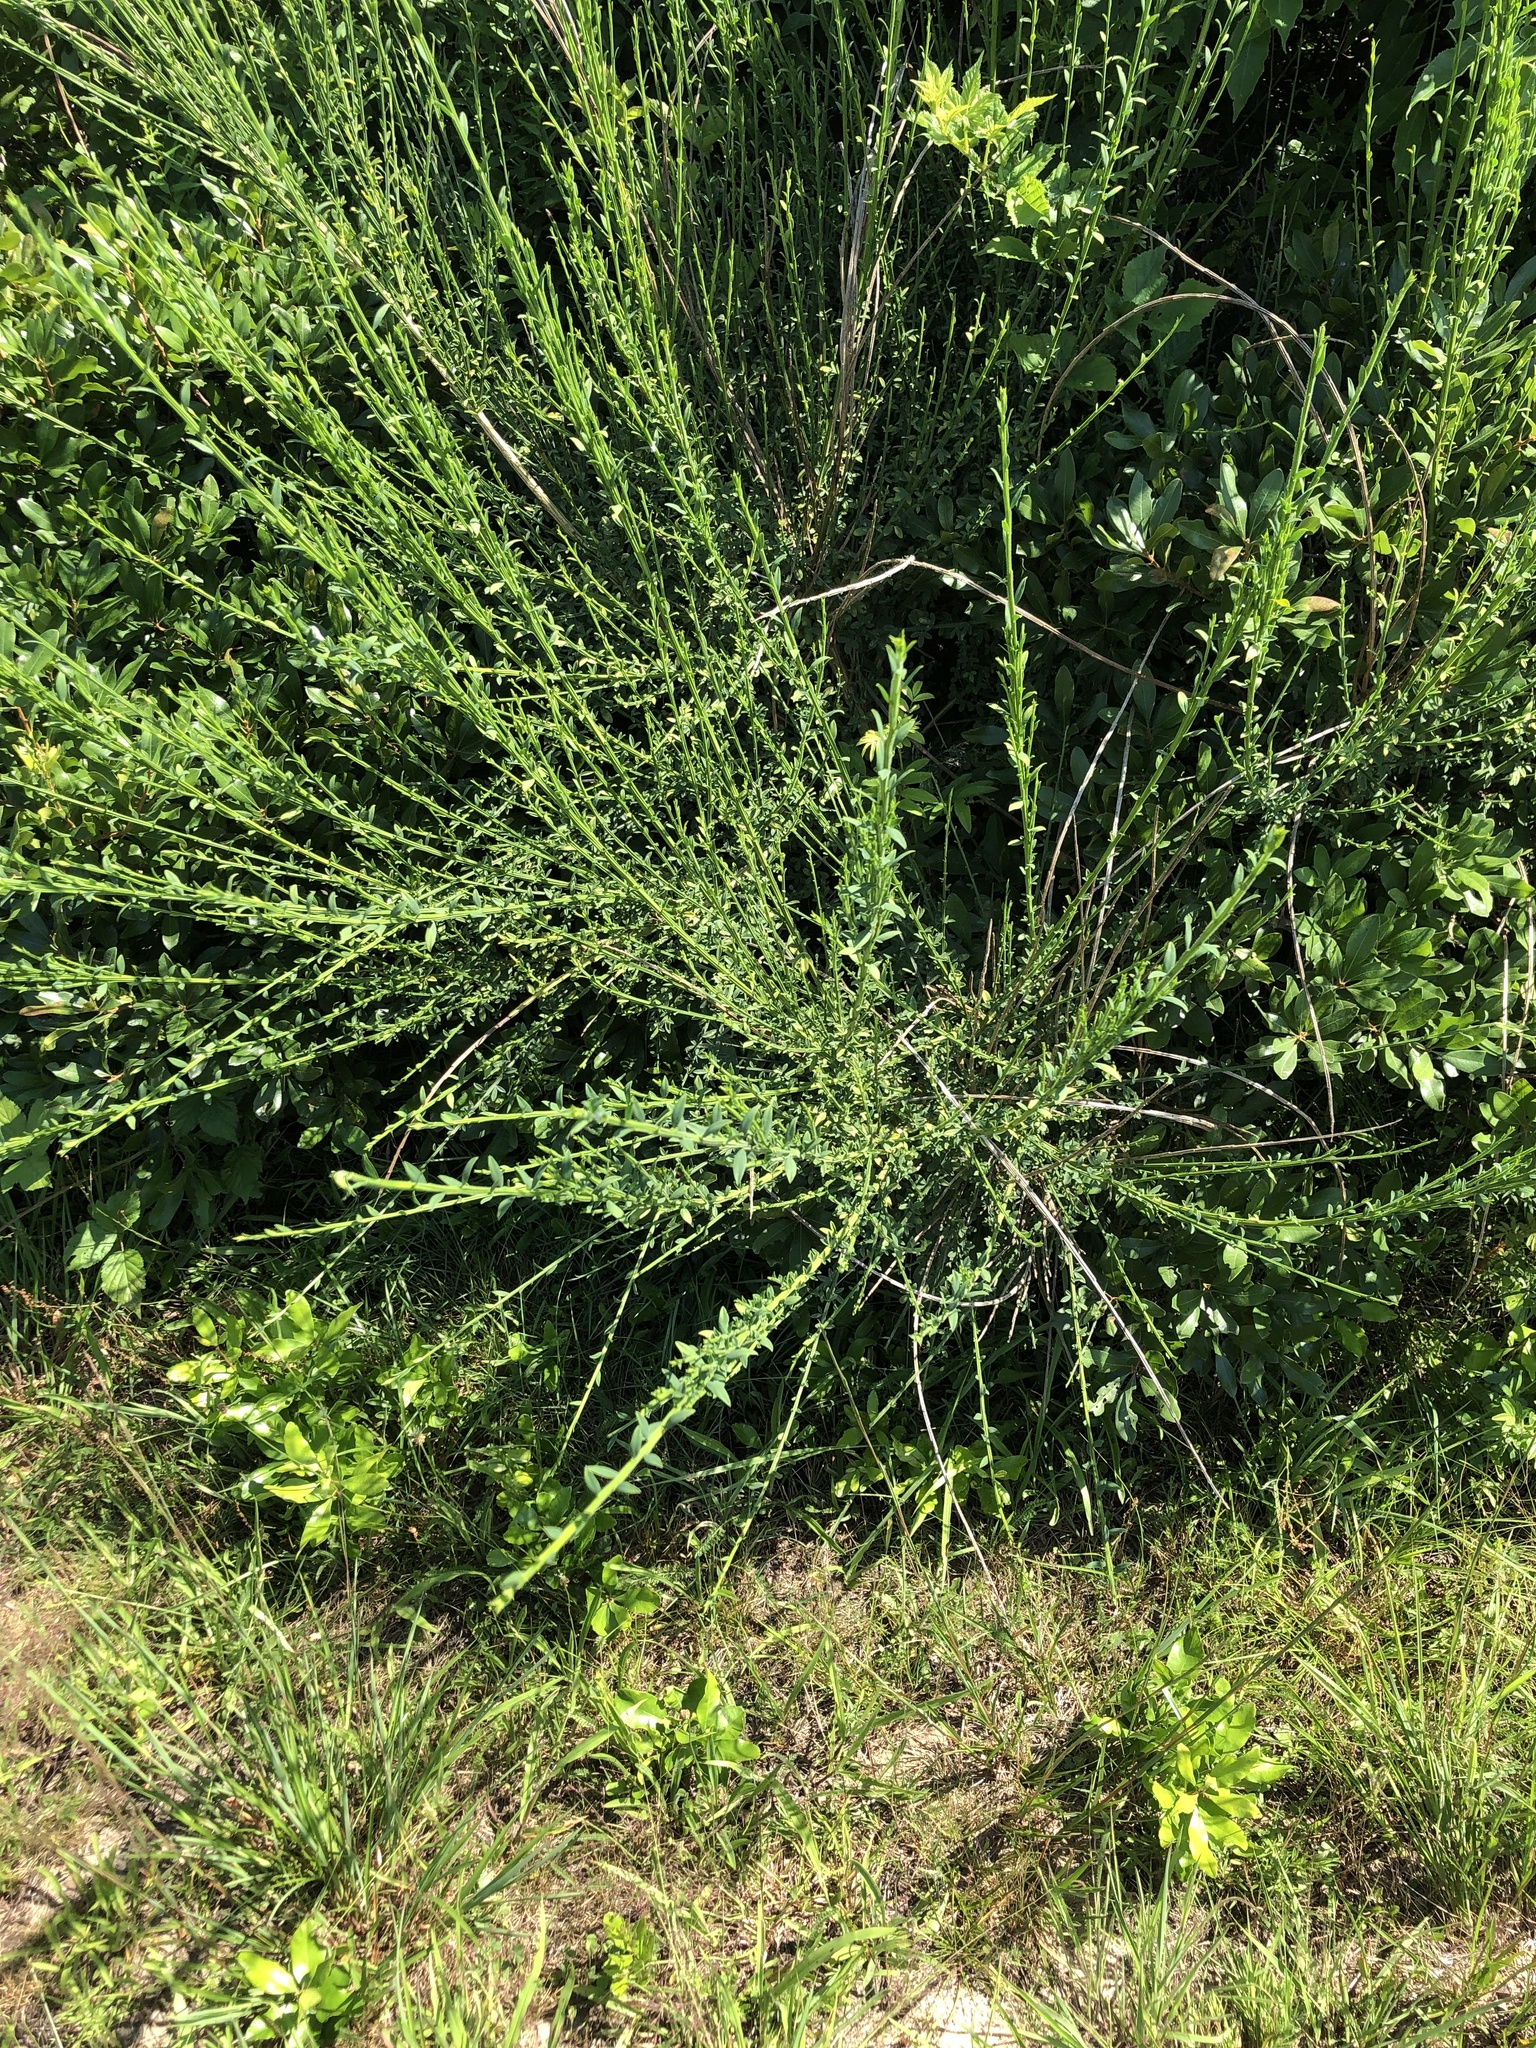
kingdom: Plantae
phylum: Tracheophyta
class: Magnoliopsida
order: Fabales
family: Fabaceae
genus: Cytisus
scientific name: Cytisus scoparius
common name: Scotch broom
